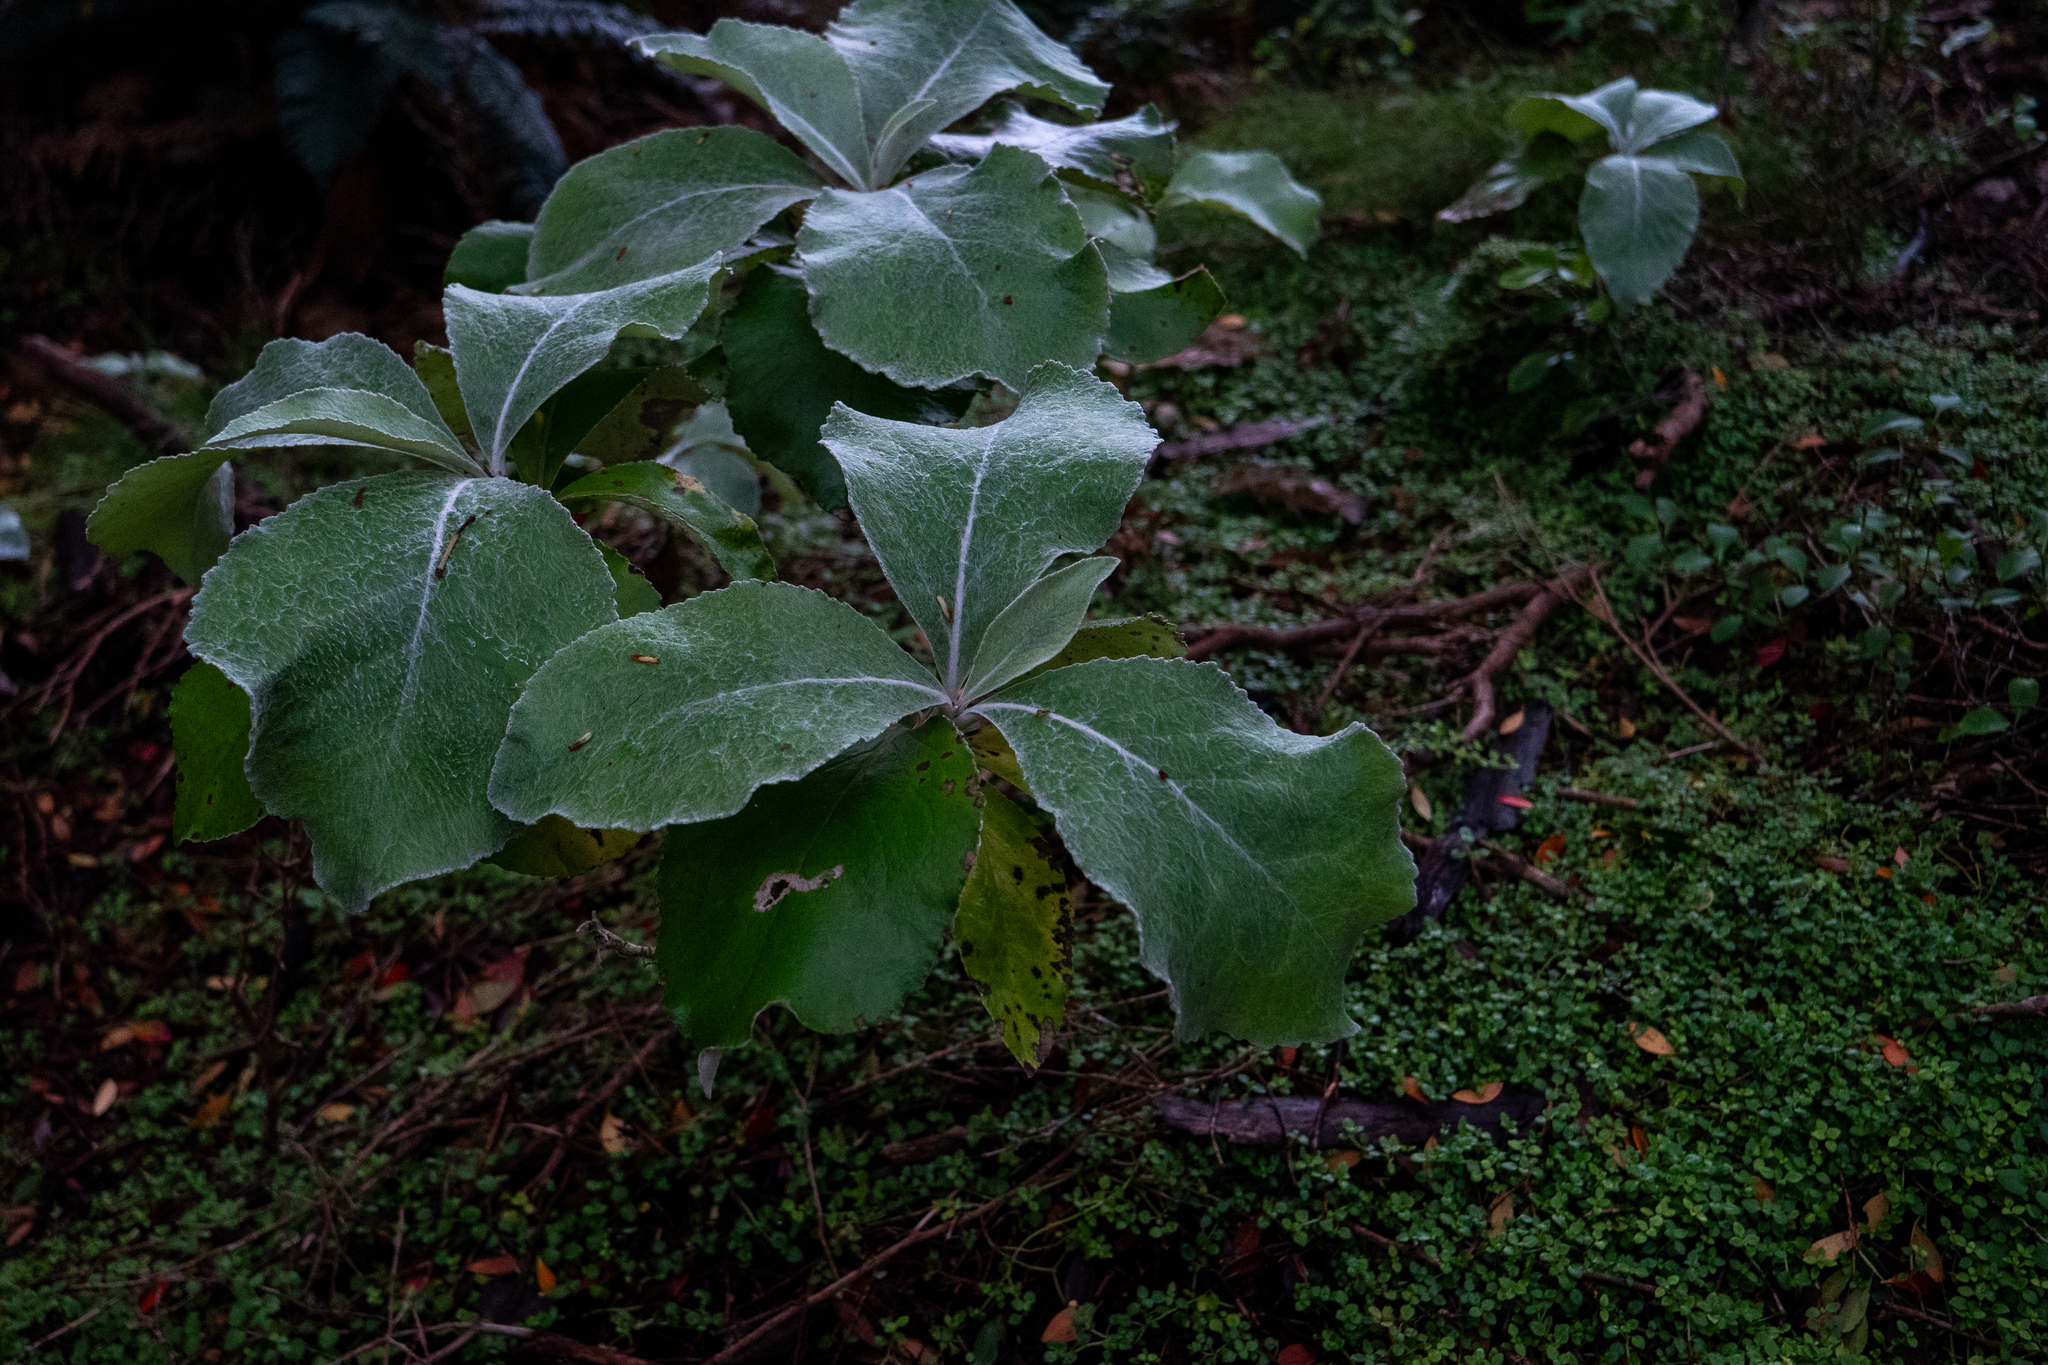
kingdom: Plantae
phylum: Tracheophyta
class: Magnoliopsida
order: Asterales
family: Asteraceae
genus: Macrolearia
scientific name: Macrolearia lyallii
